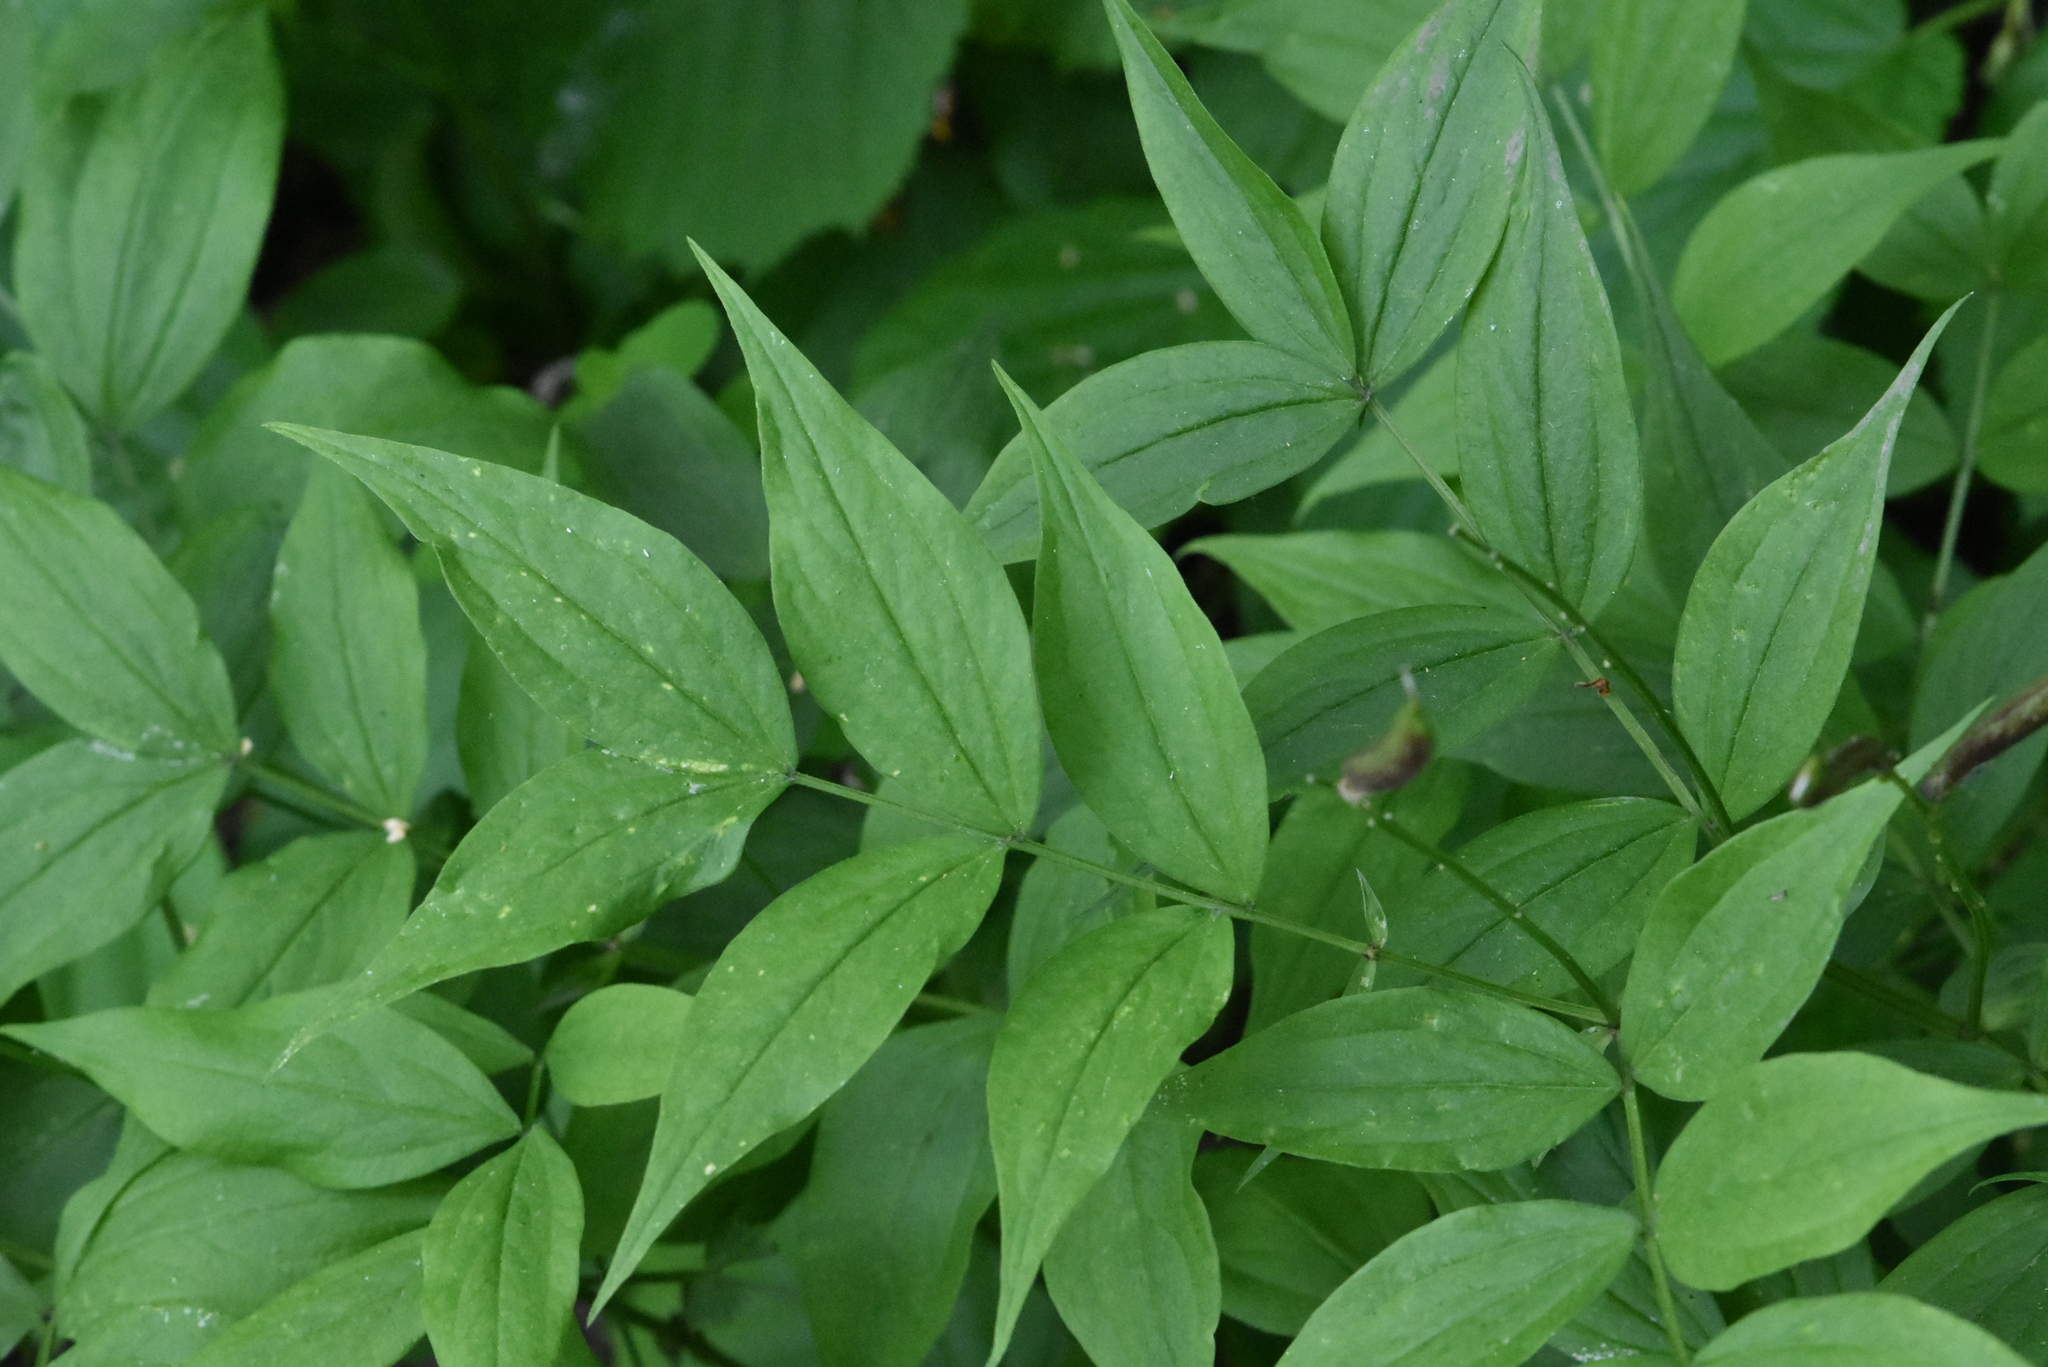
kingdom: Plantae
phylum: Tracheophyta
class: Magnoliopsida
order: Fabales
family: Fabaceae
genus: Lathyrus
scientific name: Lathyrus vernus
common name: Spring pea
